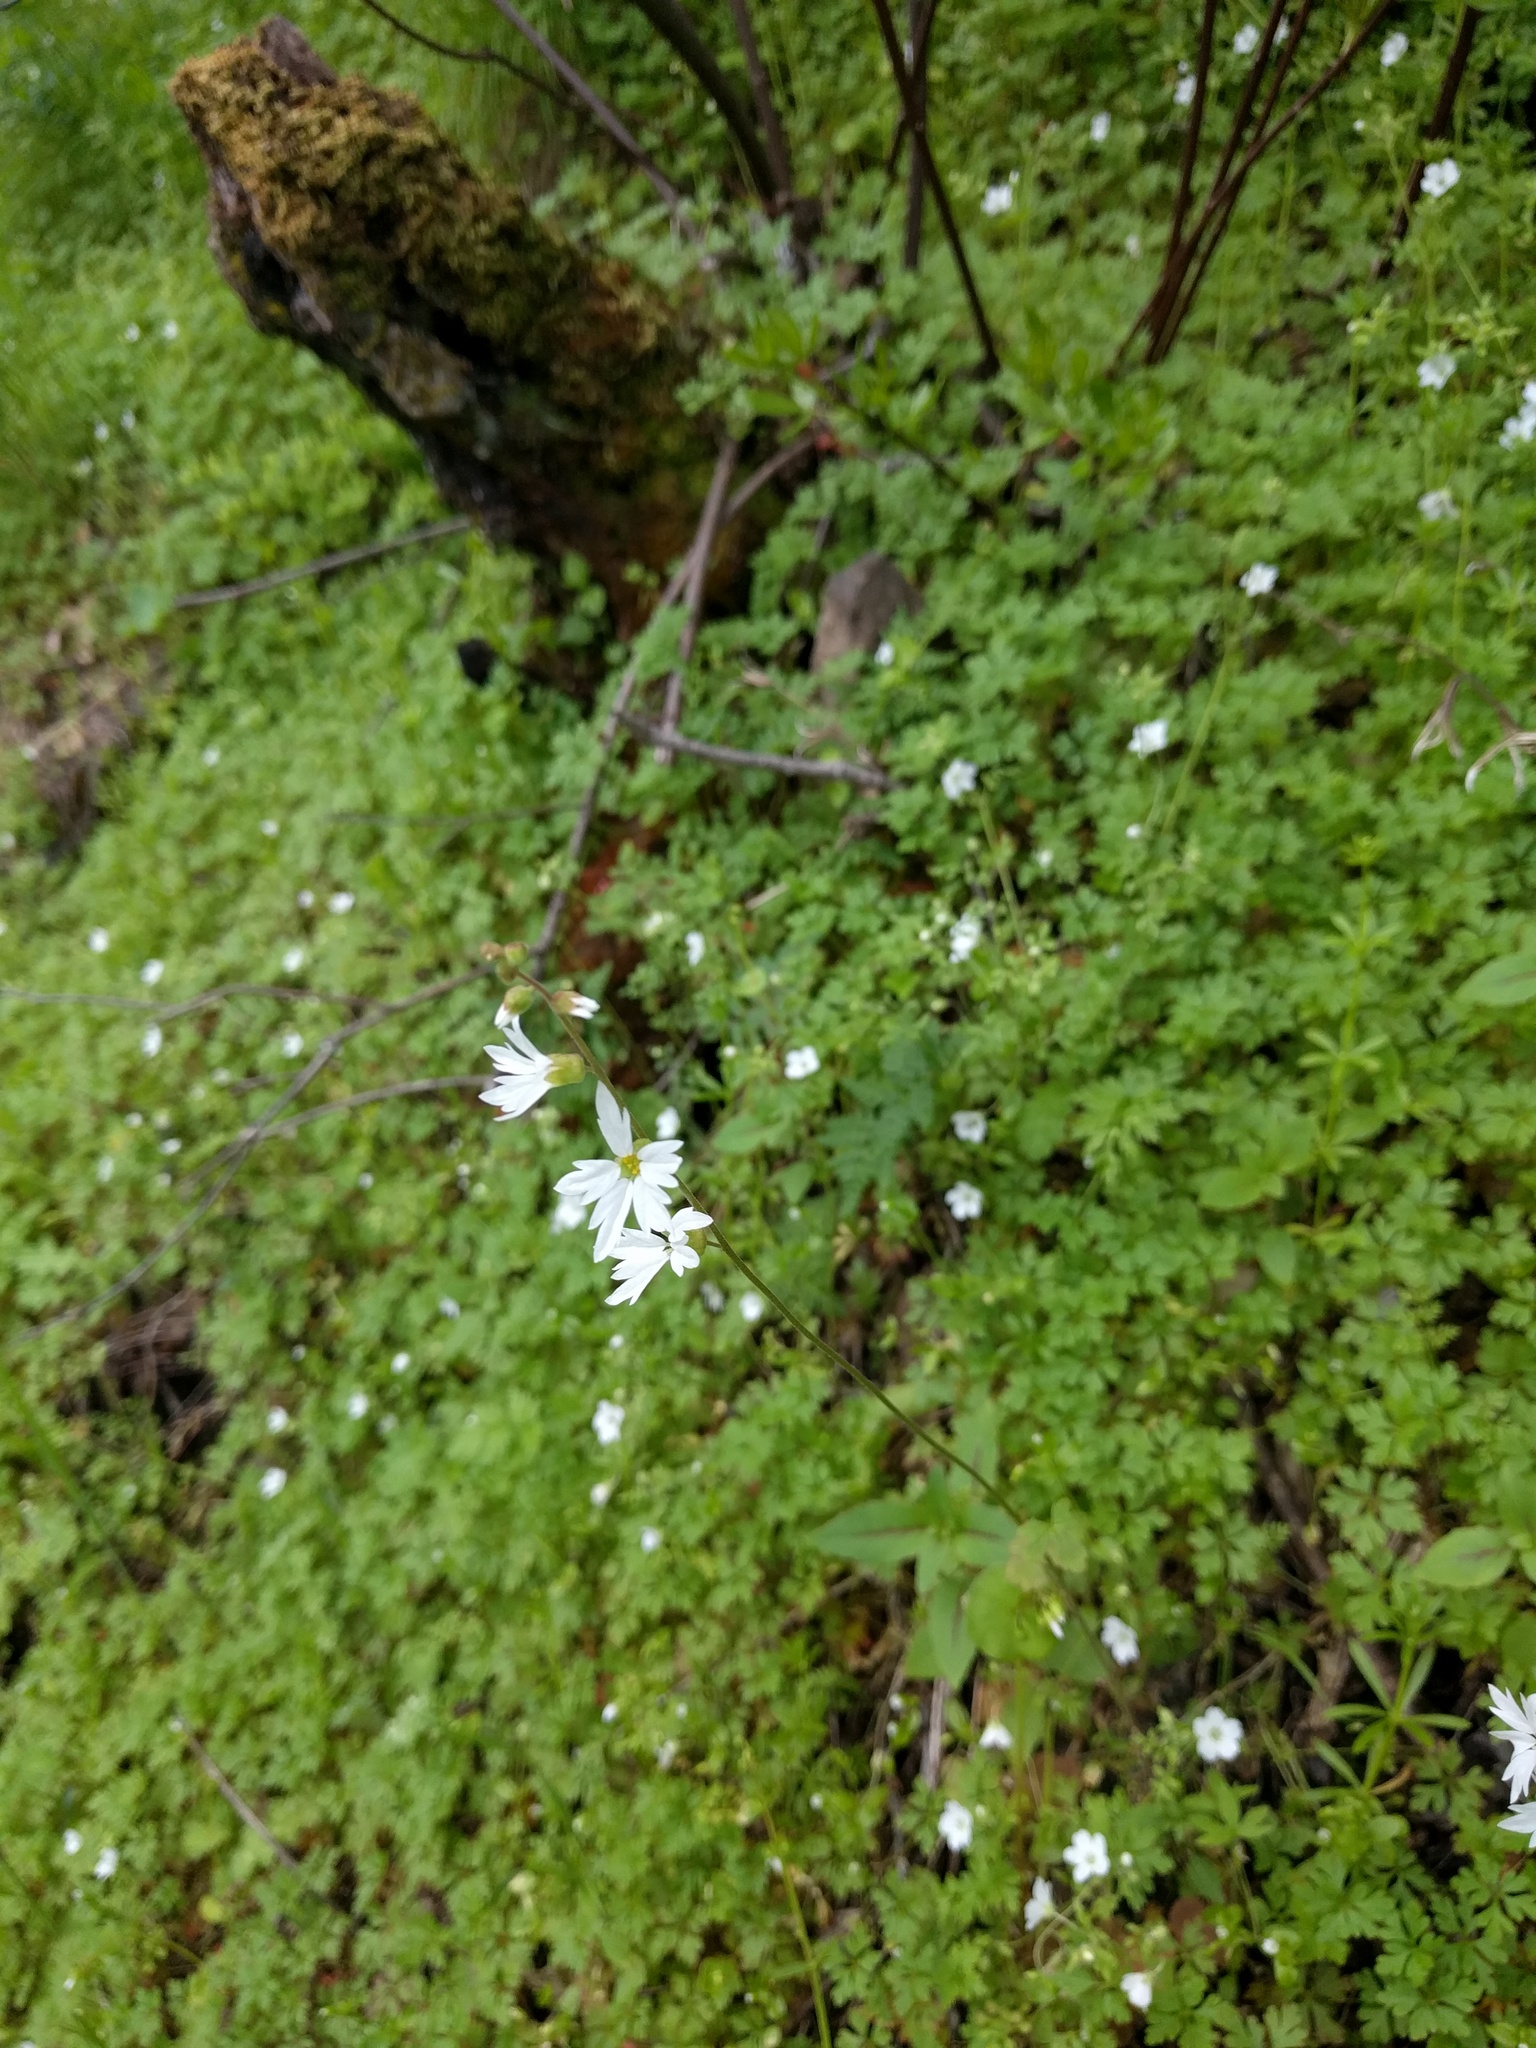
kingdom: Plantae
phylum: Tracheophyta
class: Magnoliopsida
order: Saxifragales
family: Saxifragaceae
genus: Lithophragma
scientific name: Lithophragma heterophyllum
